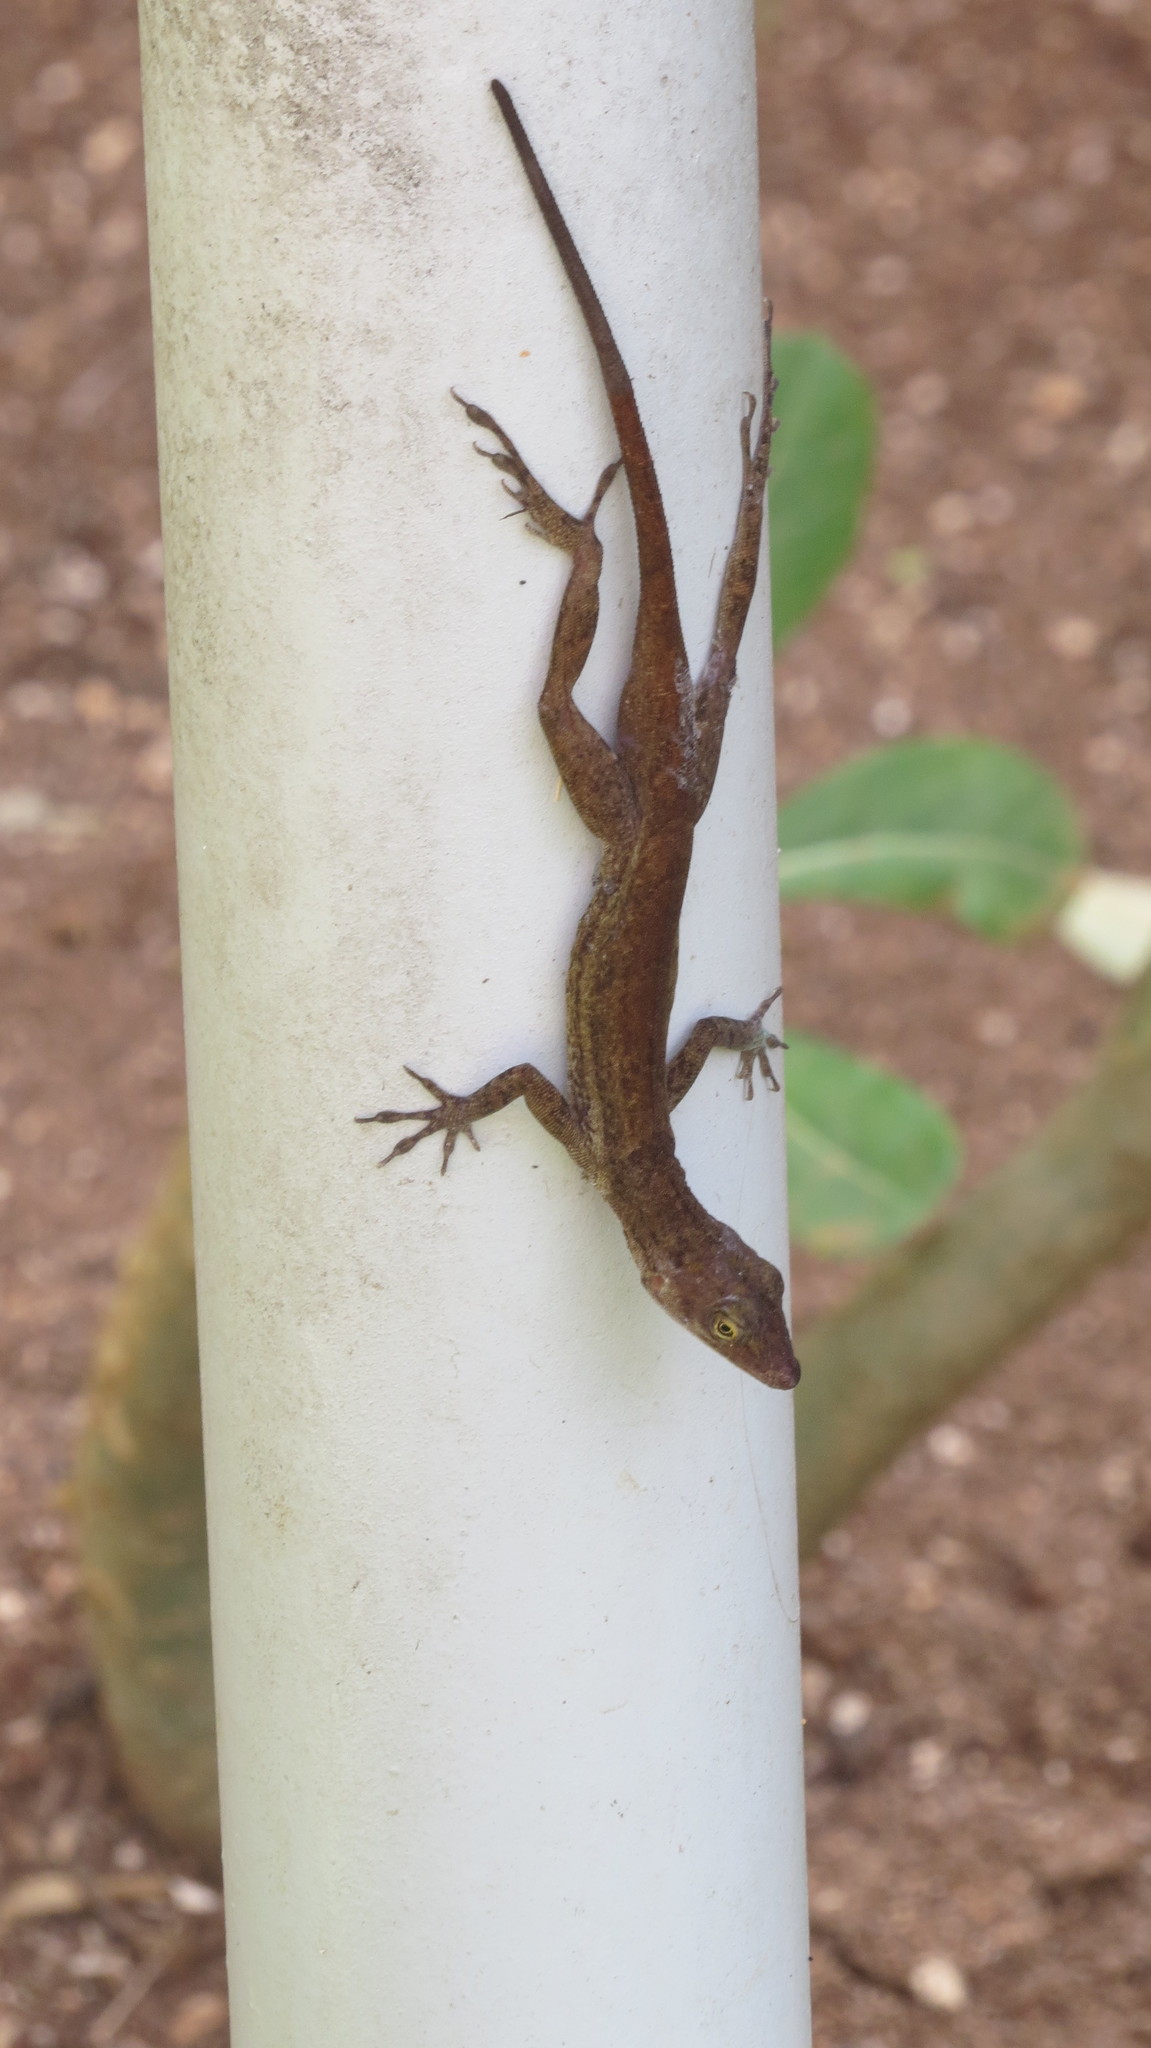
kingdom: Animalia
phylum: Chordata
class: Squamata
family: Dactyloidae
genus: Anolis
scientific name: Anolis concolor
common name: Isla san andres anole
